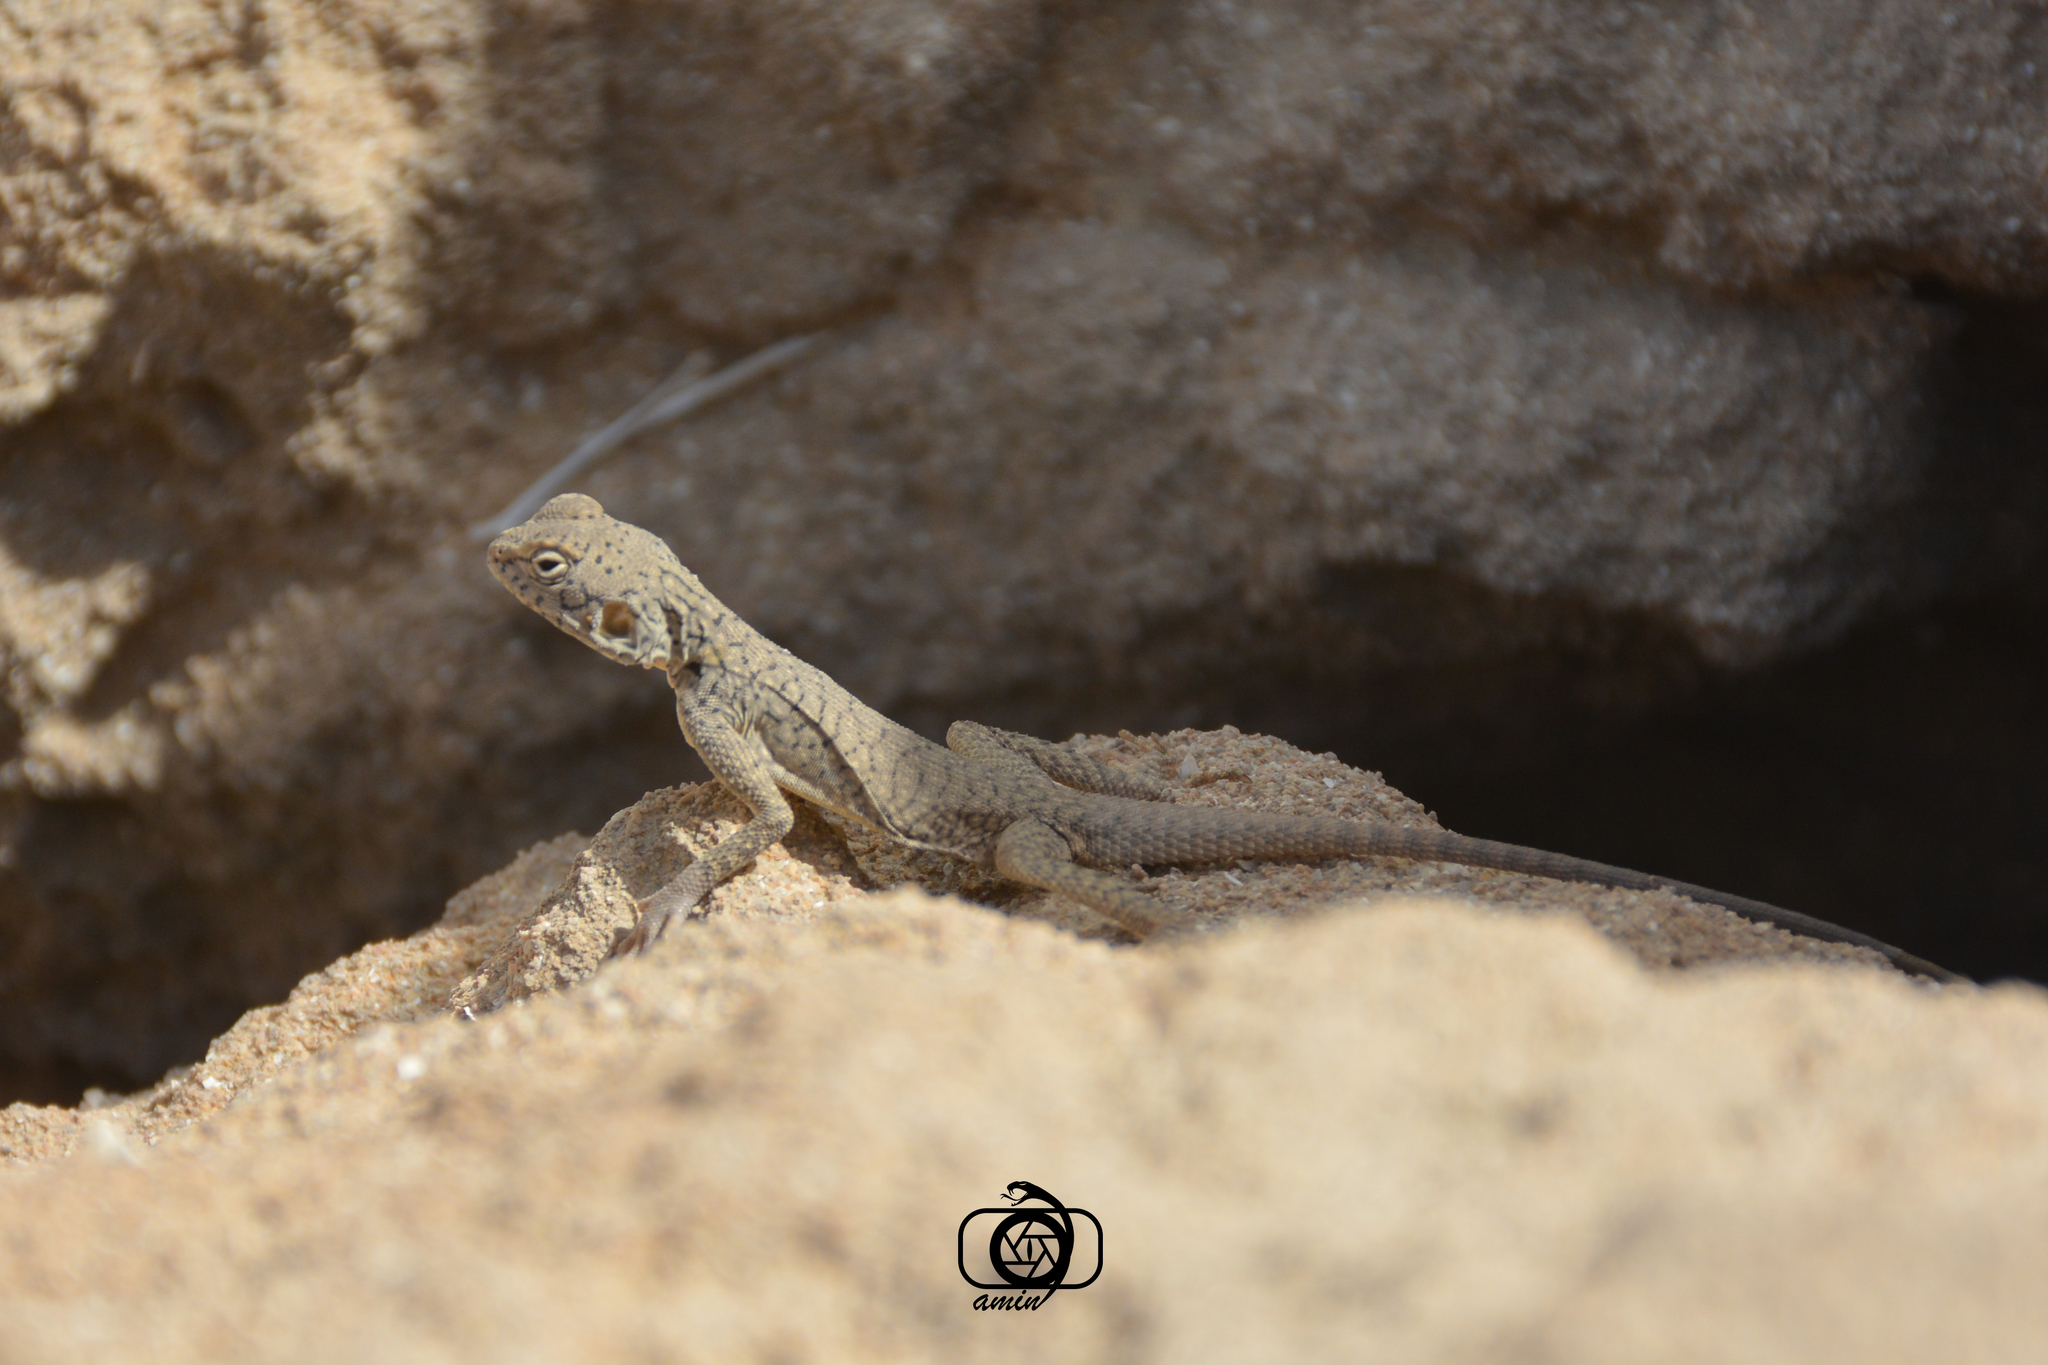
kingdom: Animalia
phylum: Chordata
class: Squamata
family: Agamidae
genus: Laudakia
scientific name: Laudakia melanura
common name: Black agama
